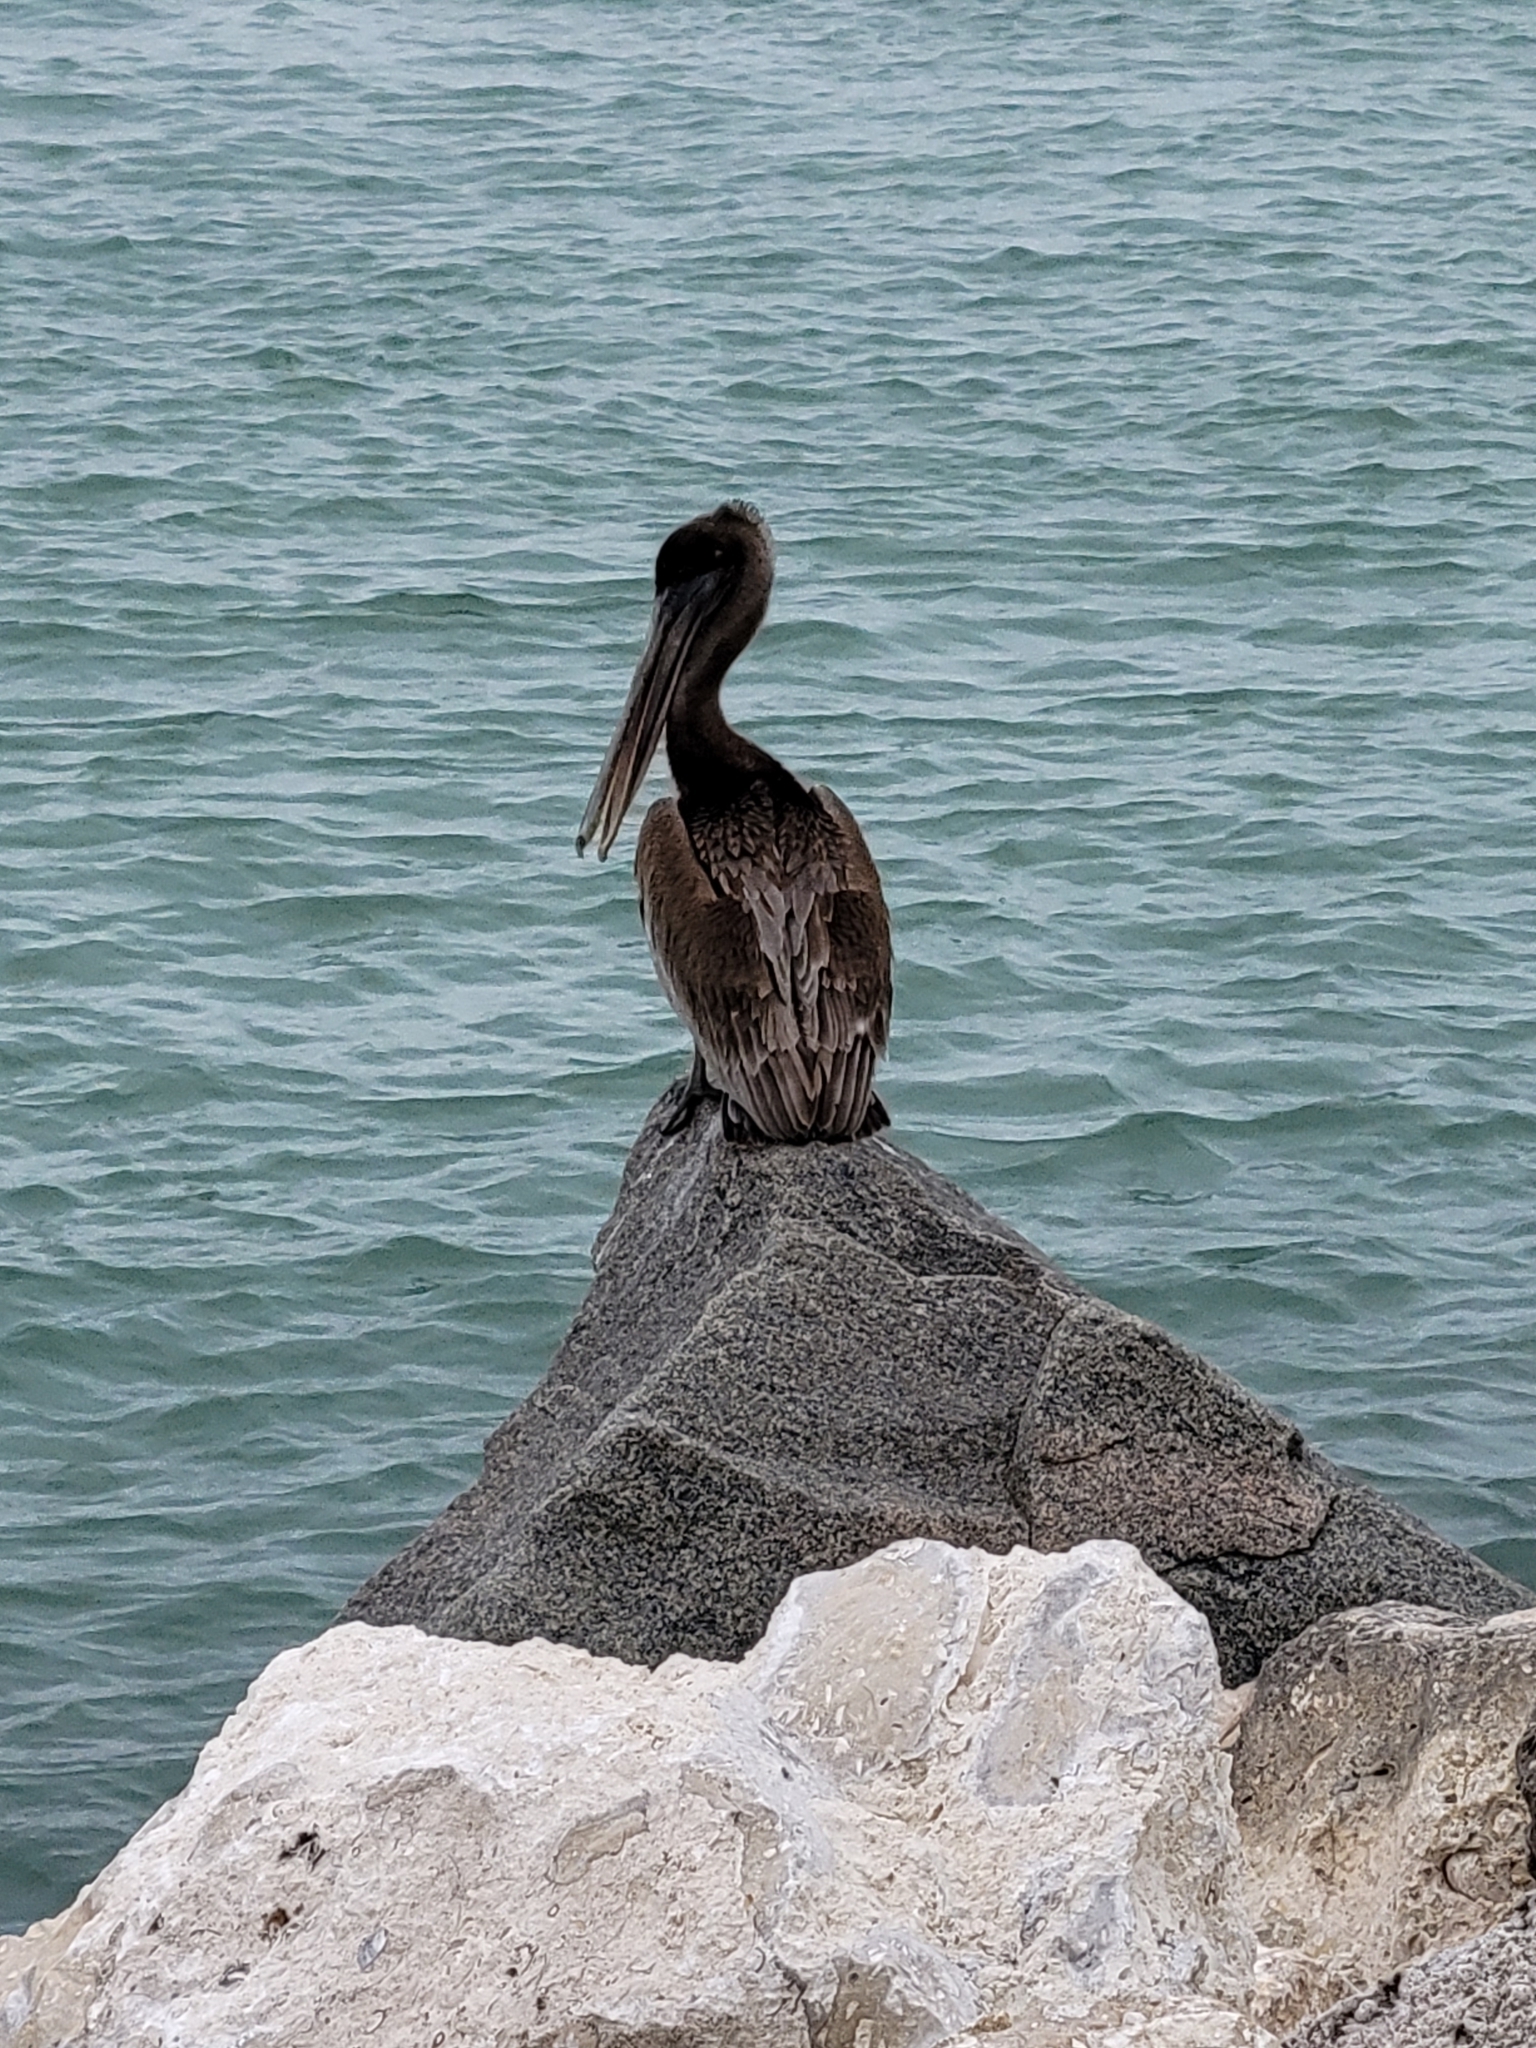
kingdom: Animalia
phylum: Chordata
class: Aves
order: Pelecaniformes
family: Pelecanidae
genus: Pelecanus
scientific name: Pelecanus occidentalis
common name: Brown pelican
